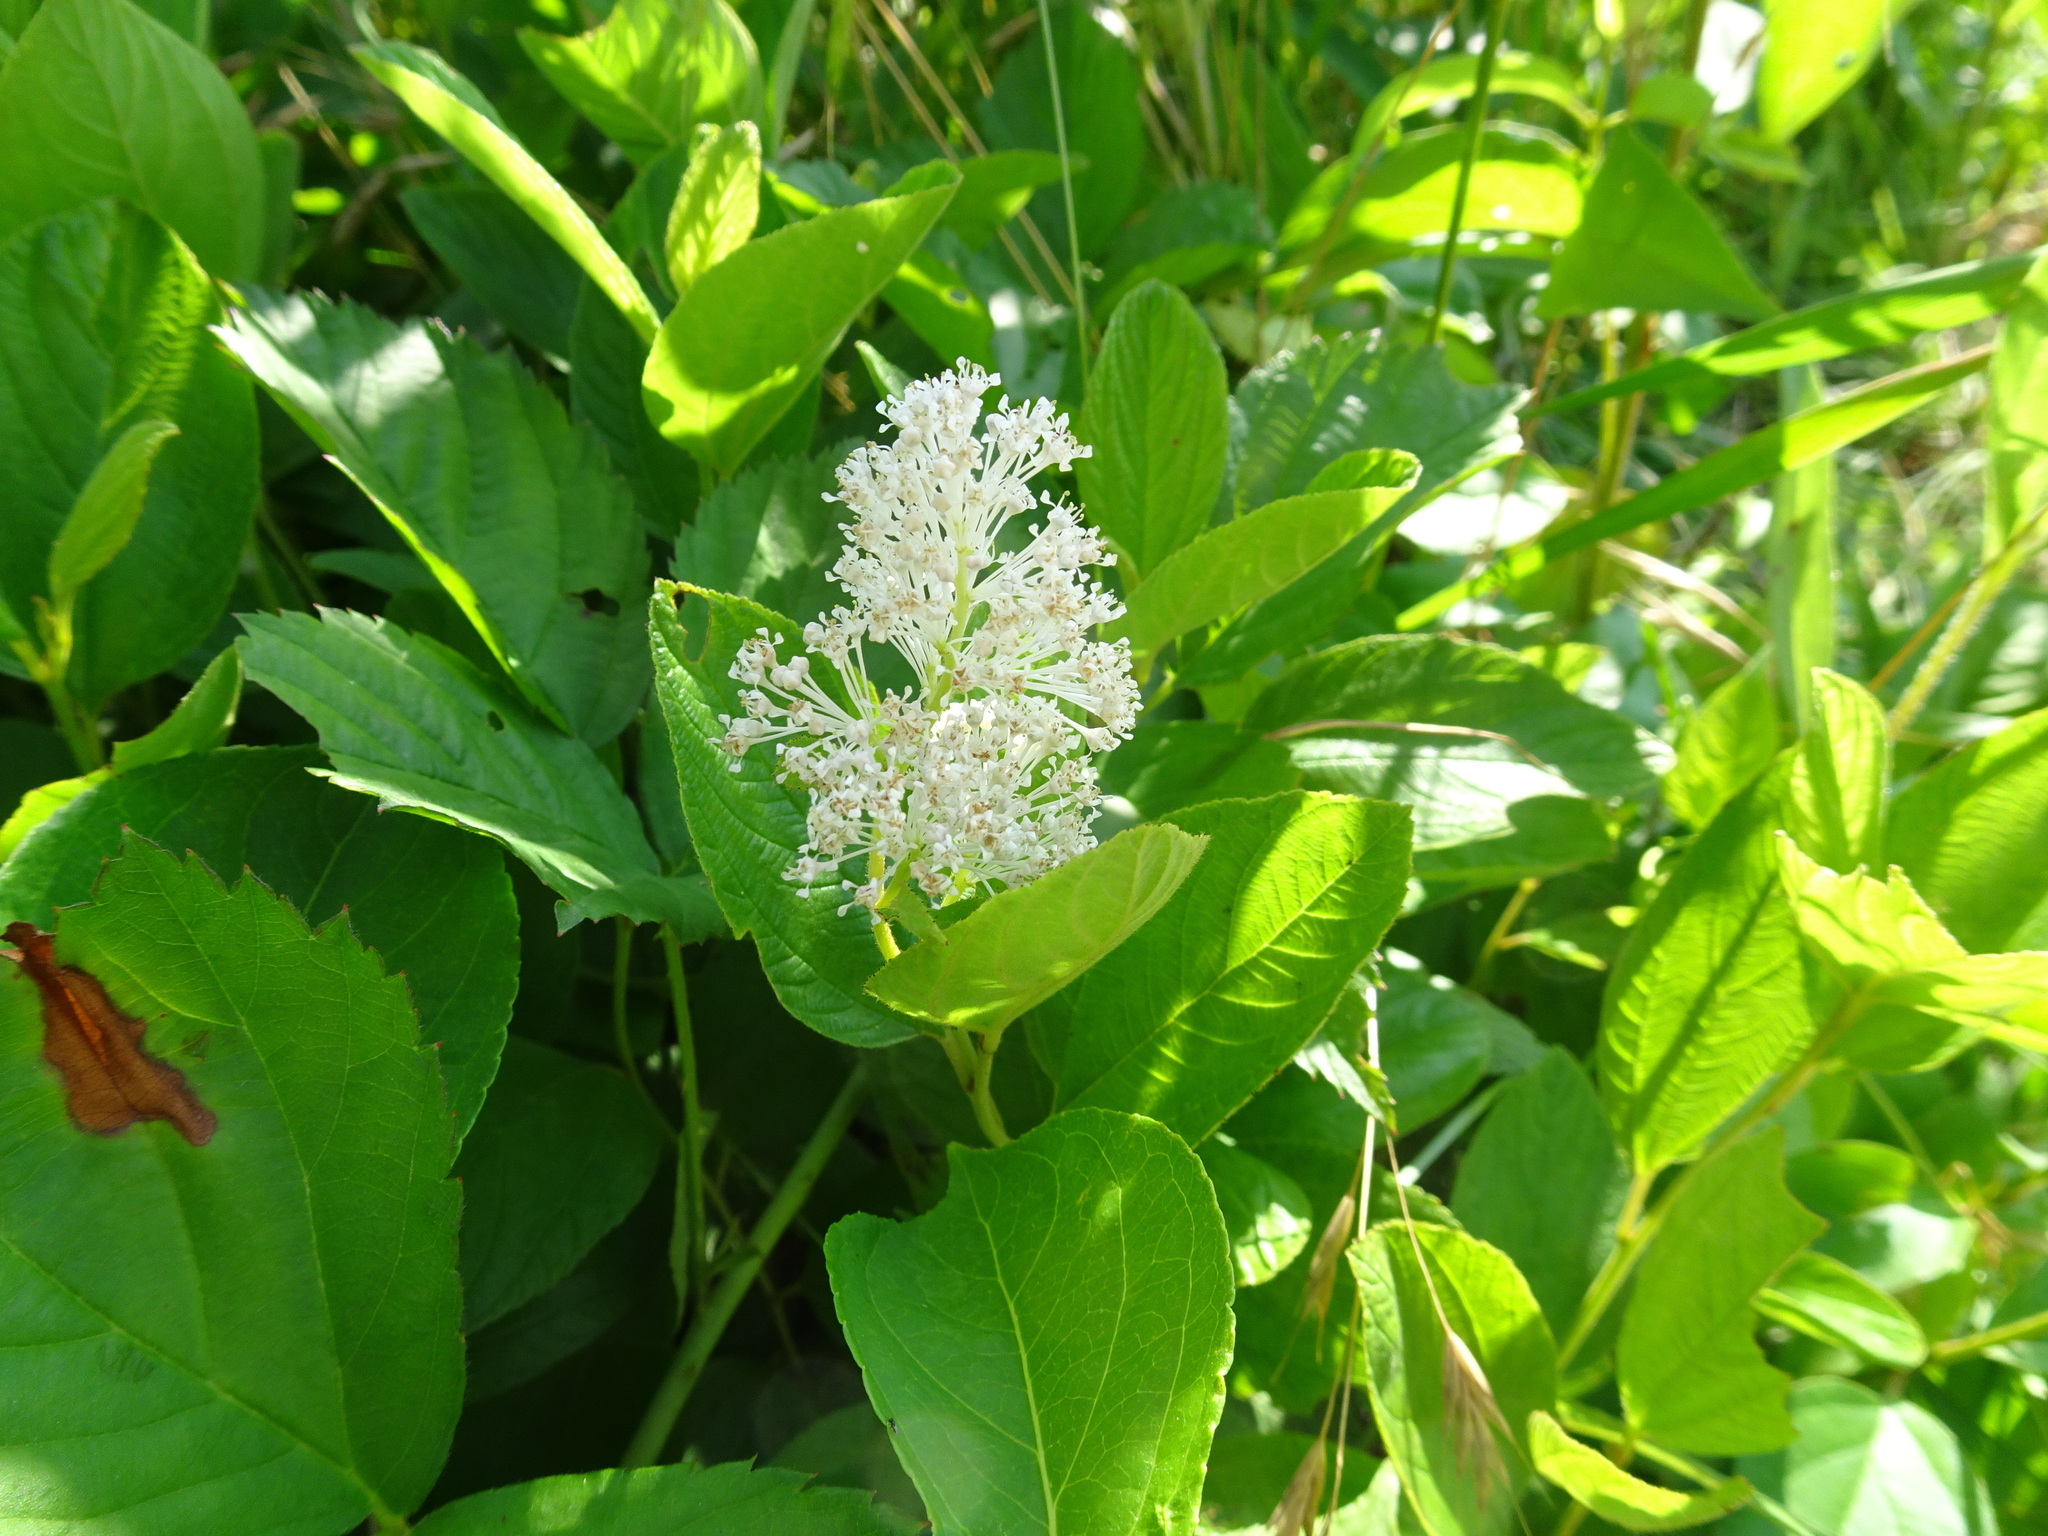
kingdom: Plantae
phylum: Tracheophyta
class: Magnoliopsida
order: Rosales
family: Rhamnaceae
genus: Ceanothus
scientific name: Ceanothus americanus
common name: Redroot
